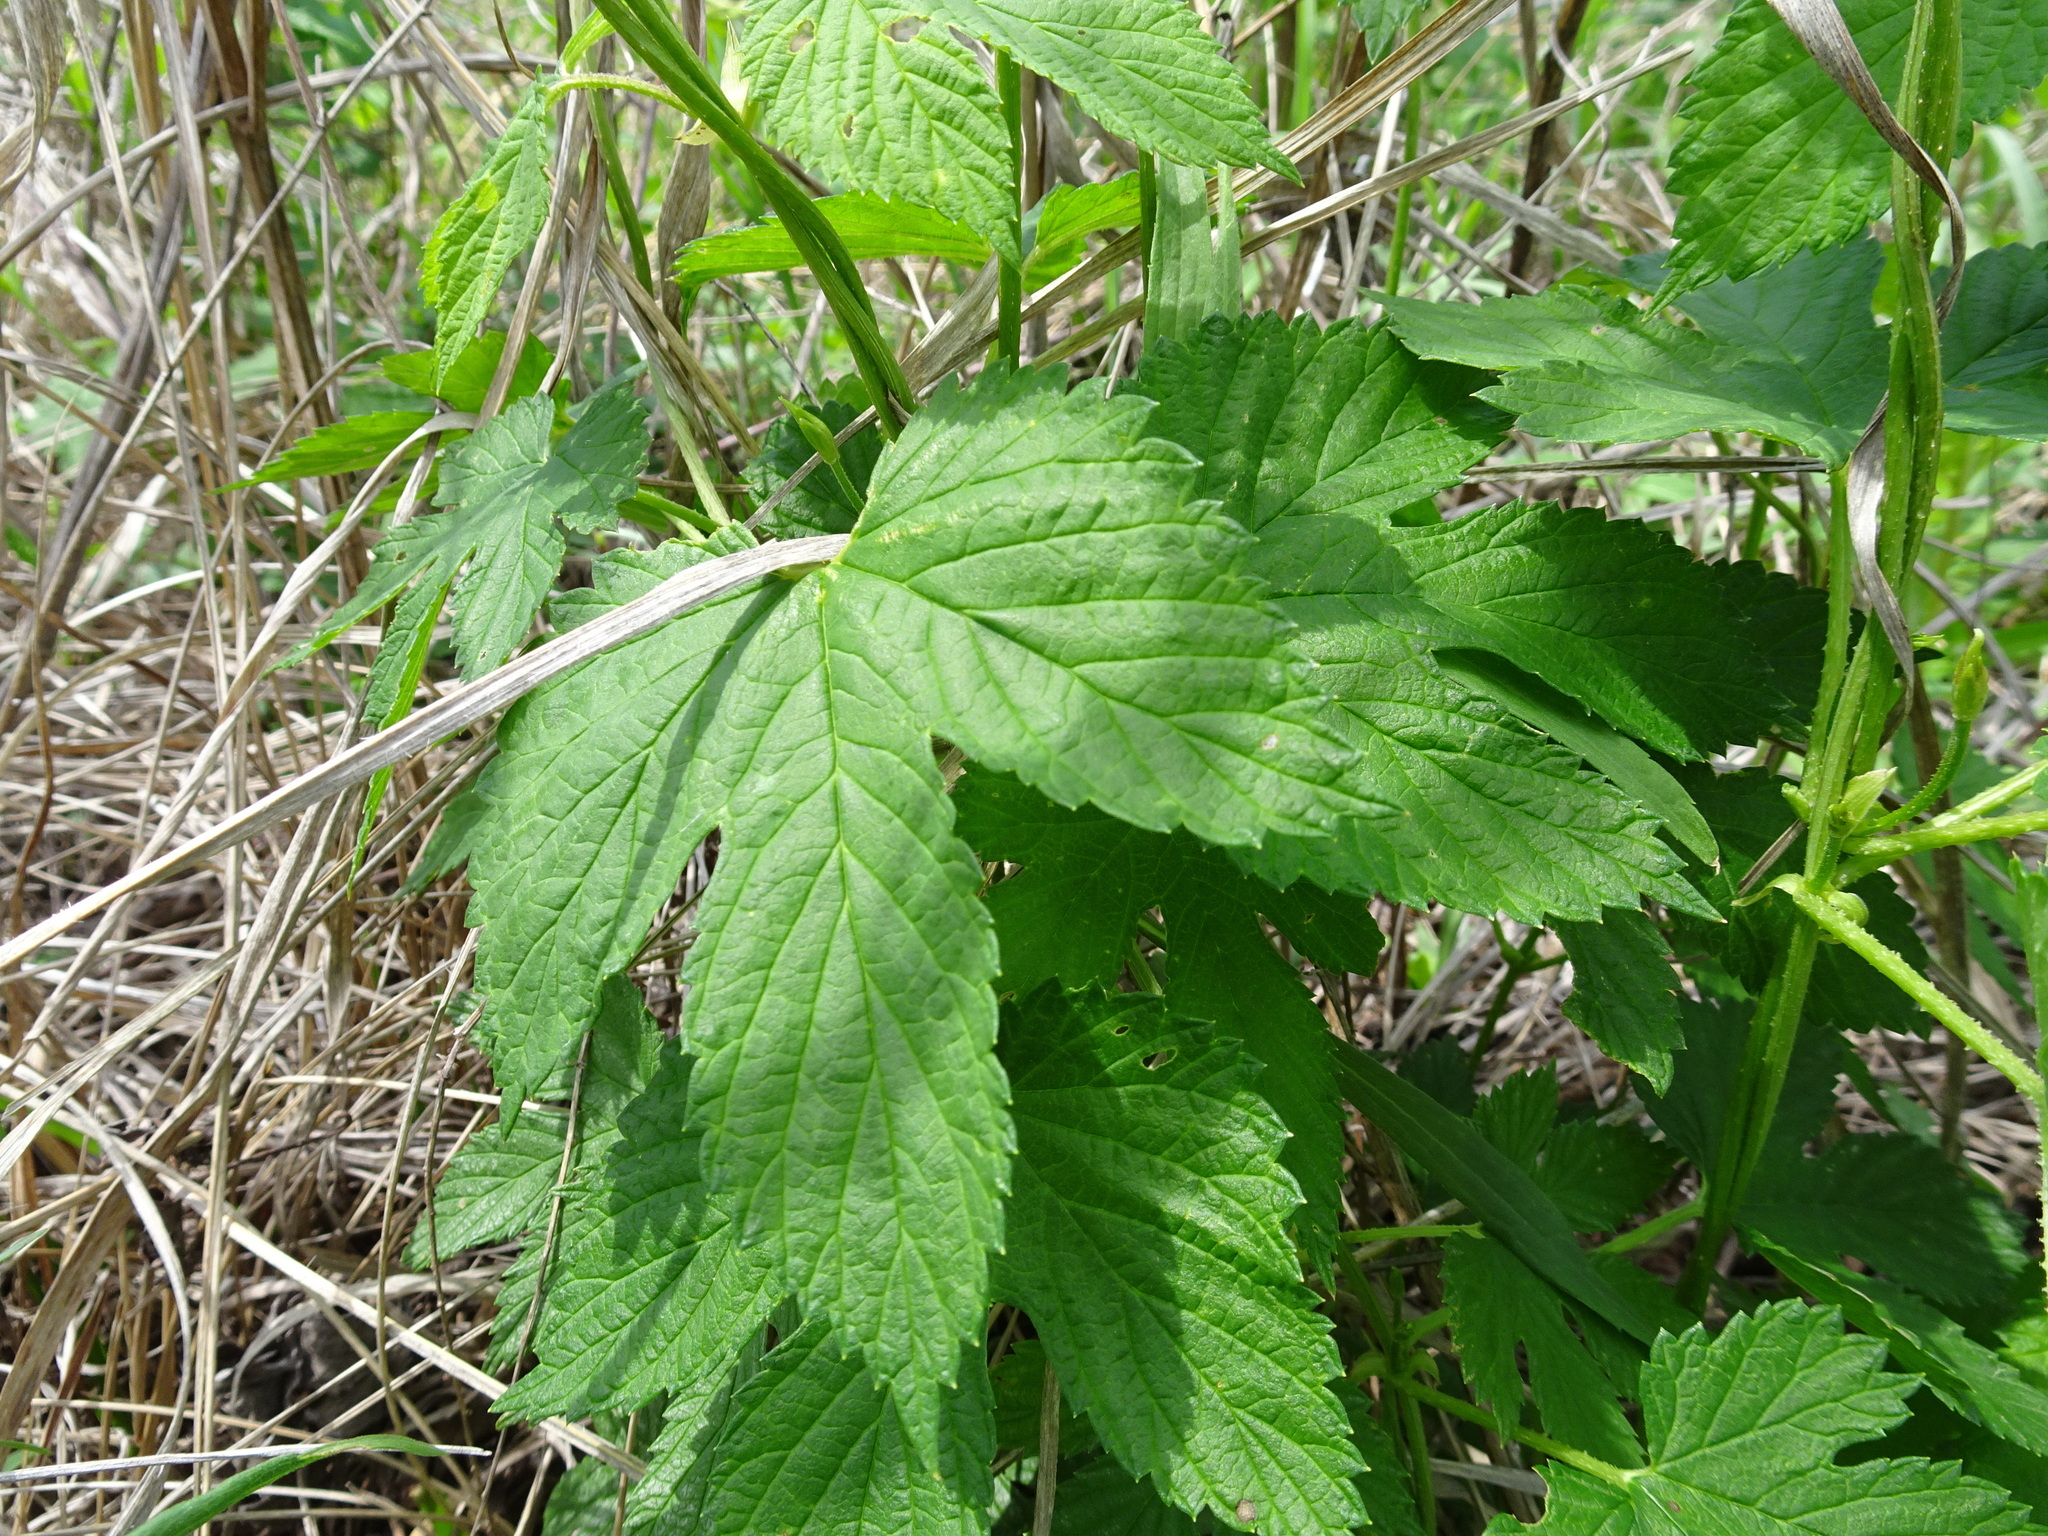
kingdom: Plantae
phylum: Tracheophyta
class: Magnoliopsida
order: Rosales
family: Cannabaceae
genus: Humulus
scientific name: Humulus lupulus
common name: Hop
